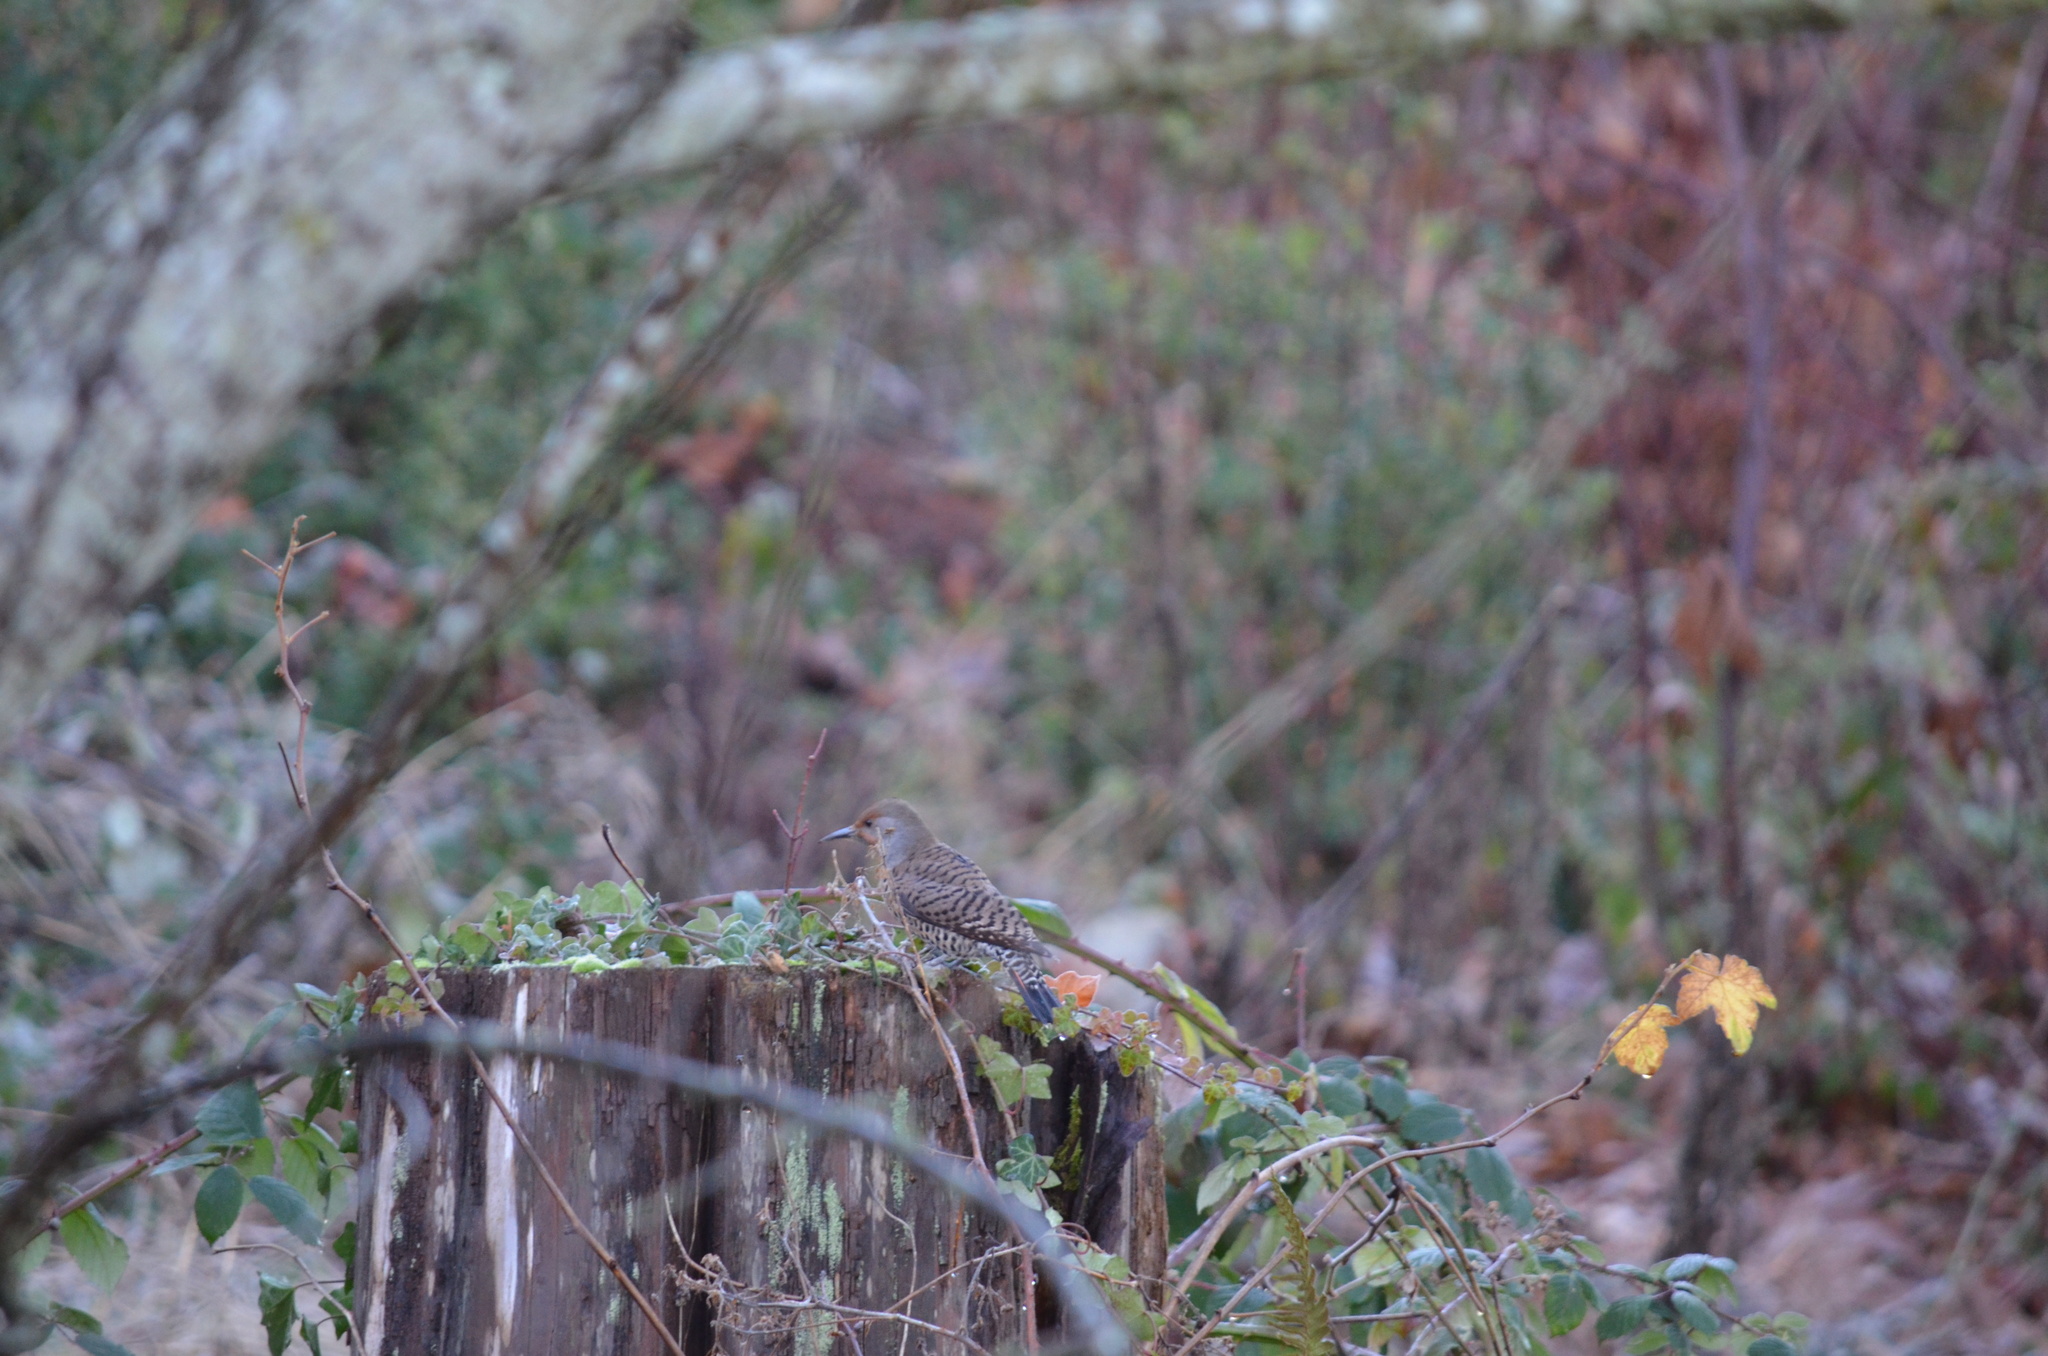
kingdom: Animalia
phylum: Chordata
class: Aves
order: Piciformes
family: Picidae
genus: Colaptes
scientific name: Colaptes auratus
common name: Northern flicker
